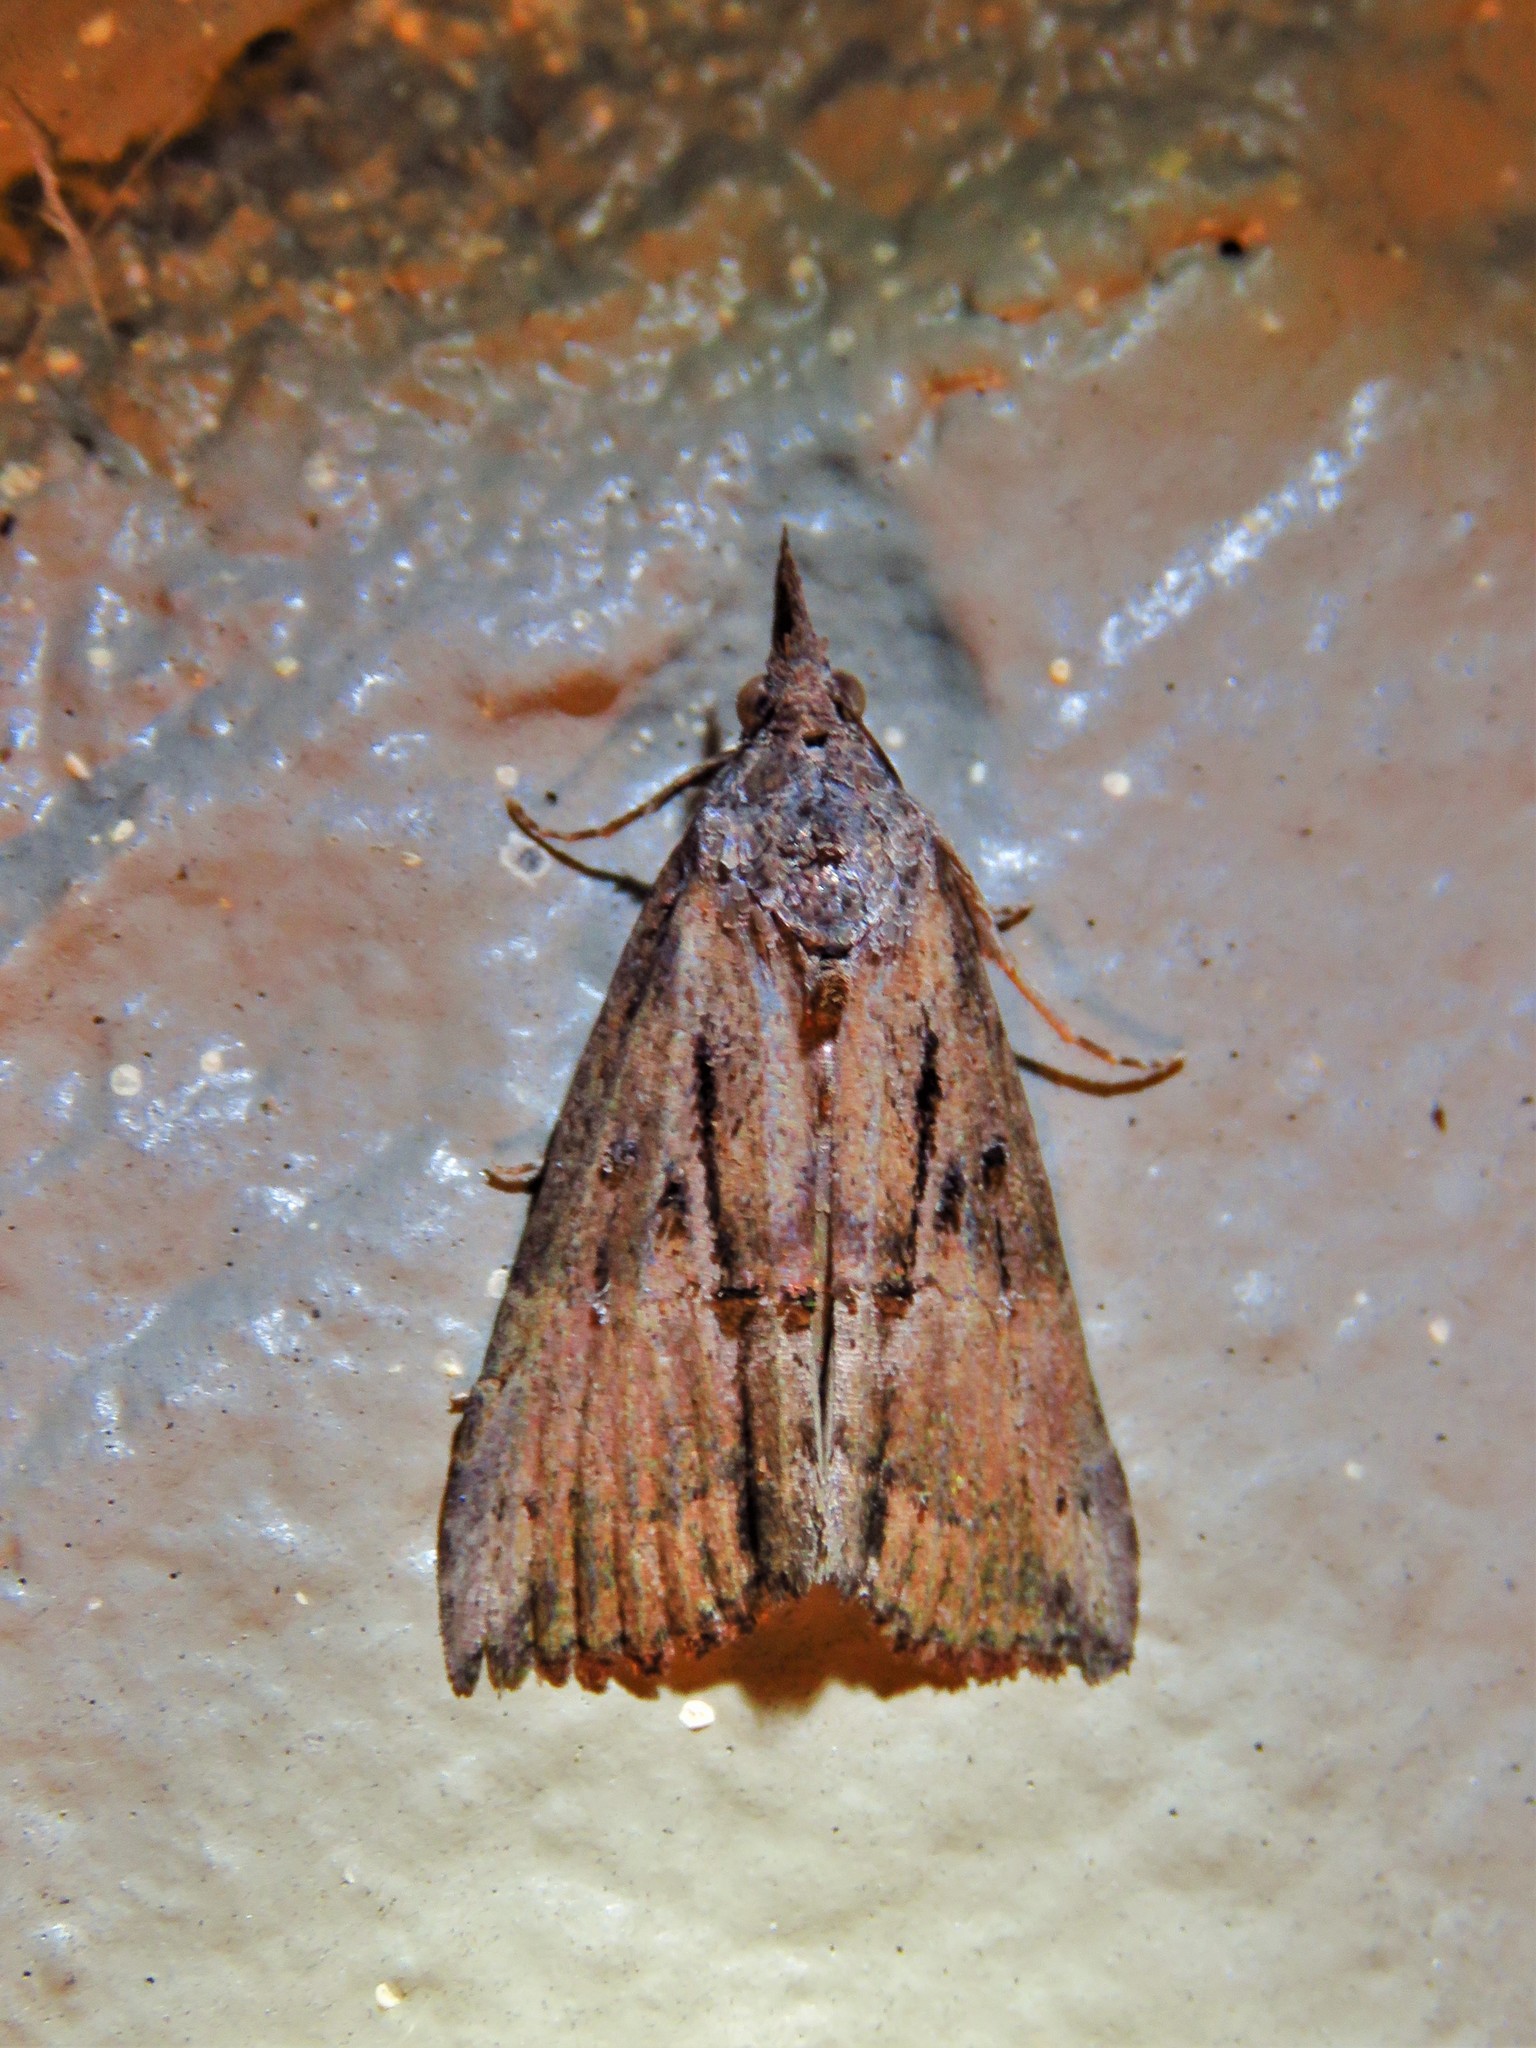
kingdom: Animalia
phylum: Arthropoda
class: Insecta
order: Lepidoptera
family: Erebidae
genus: Hypena
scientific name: Hypena scabra
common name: Green cloverworm
